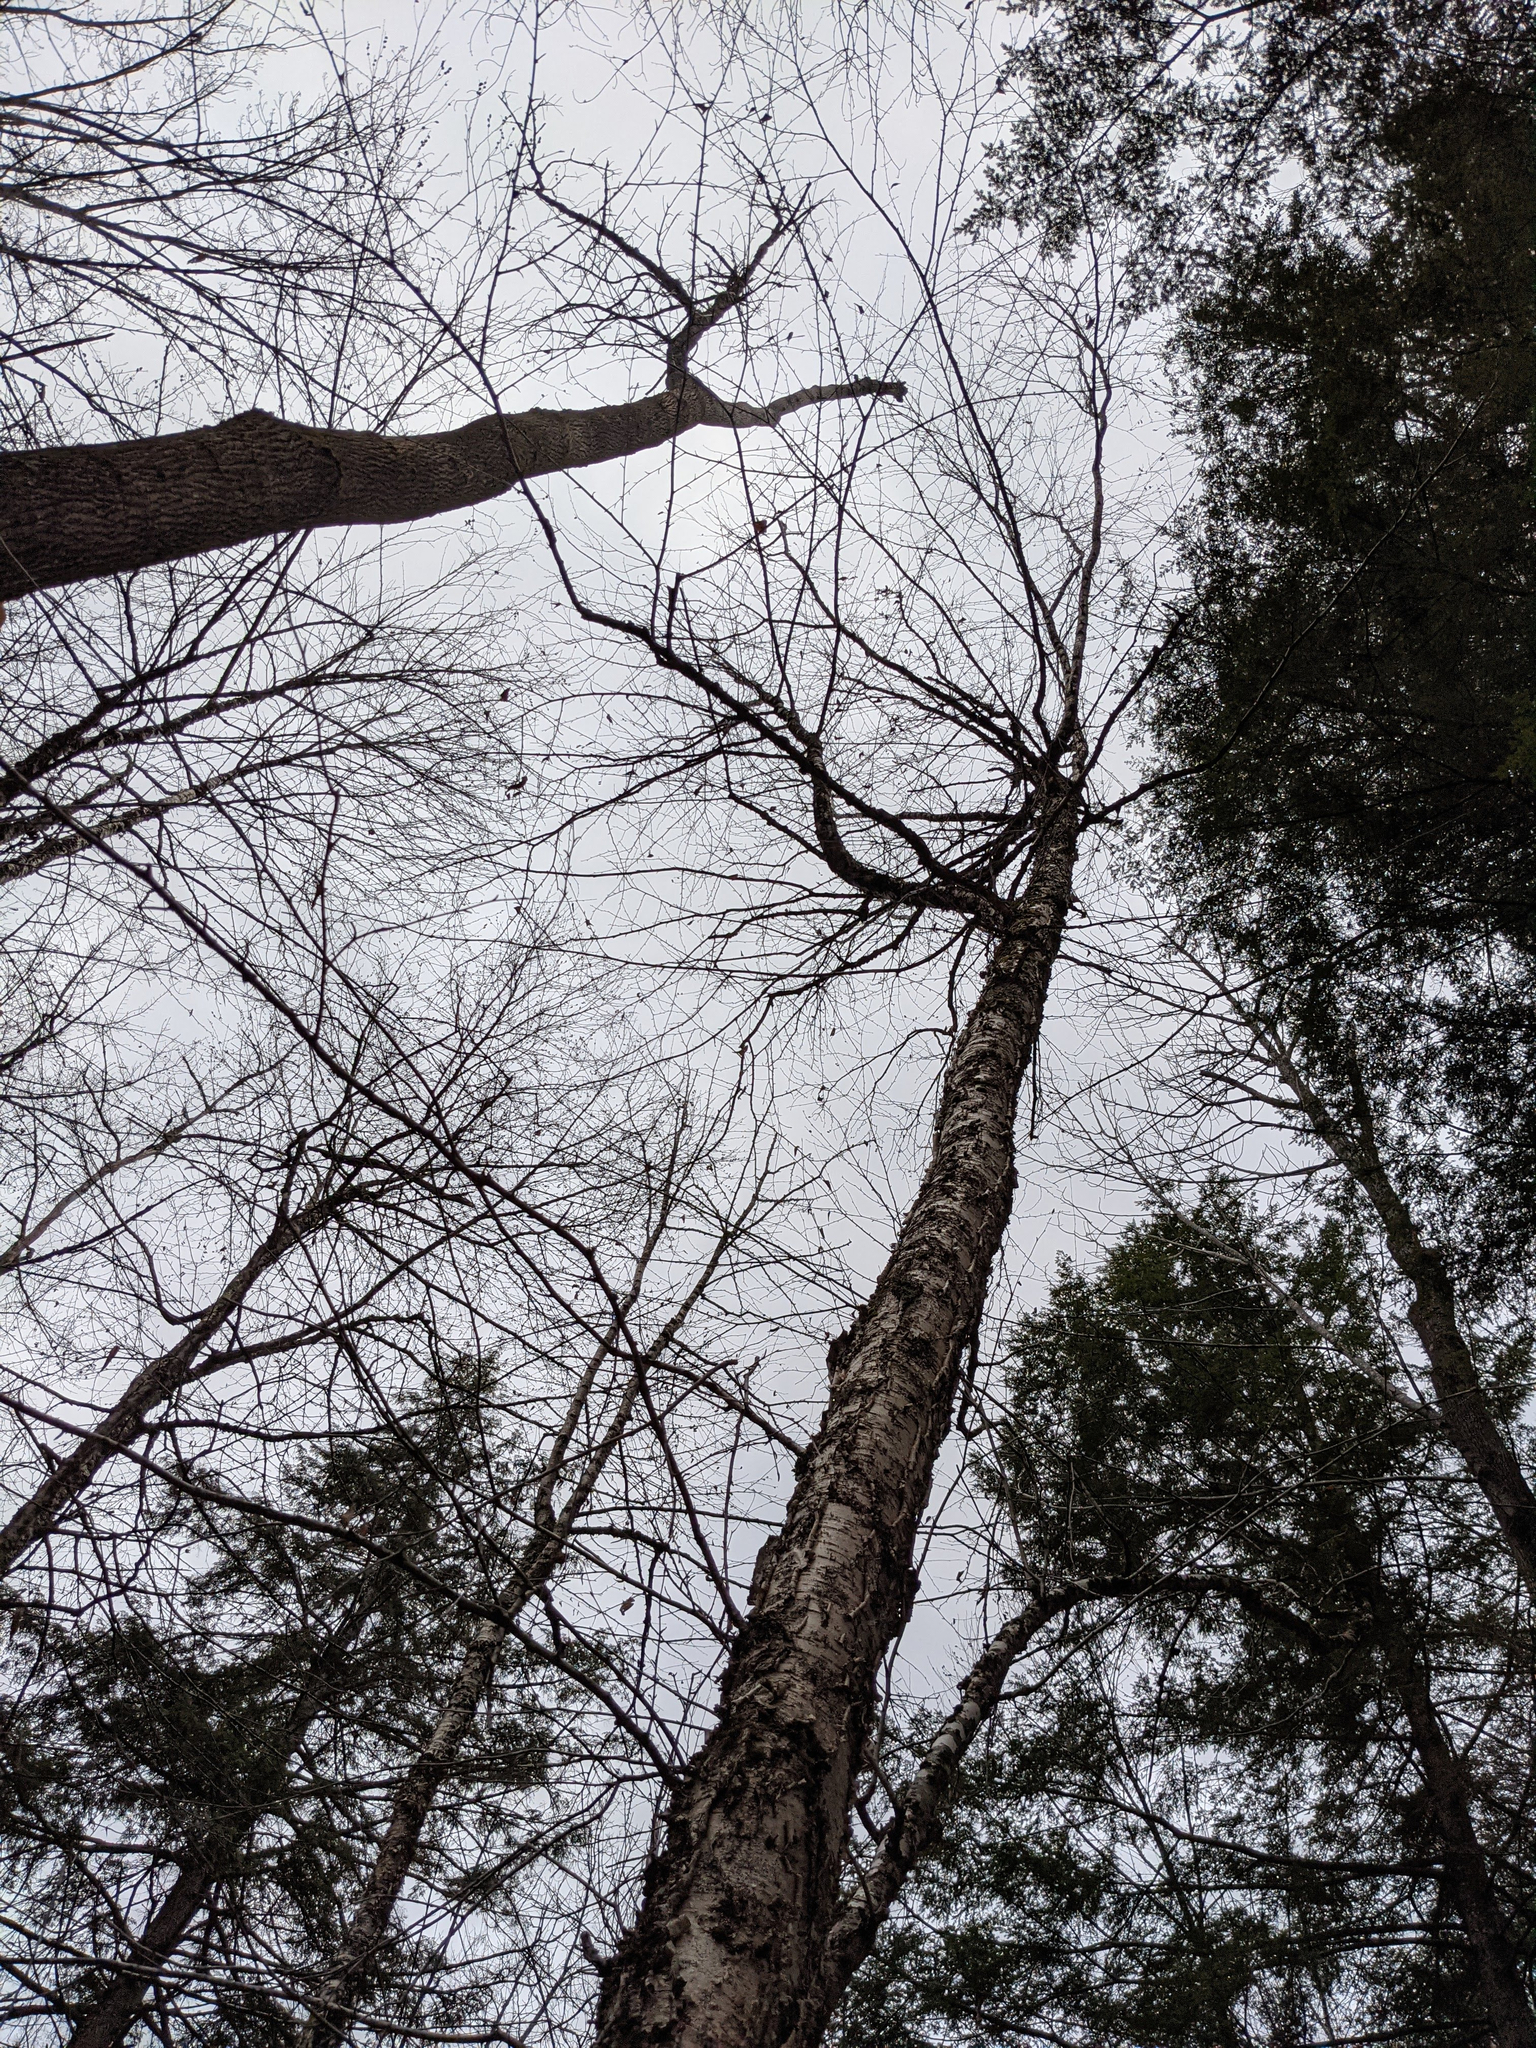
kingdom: Plantae
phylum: Tracheophyta
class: Magnoliopsida
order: Fagales
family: Betulaceae
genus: Betula
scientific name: Betula alleghaniensis
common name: Yellow birch
